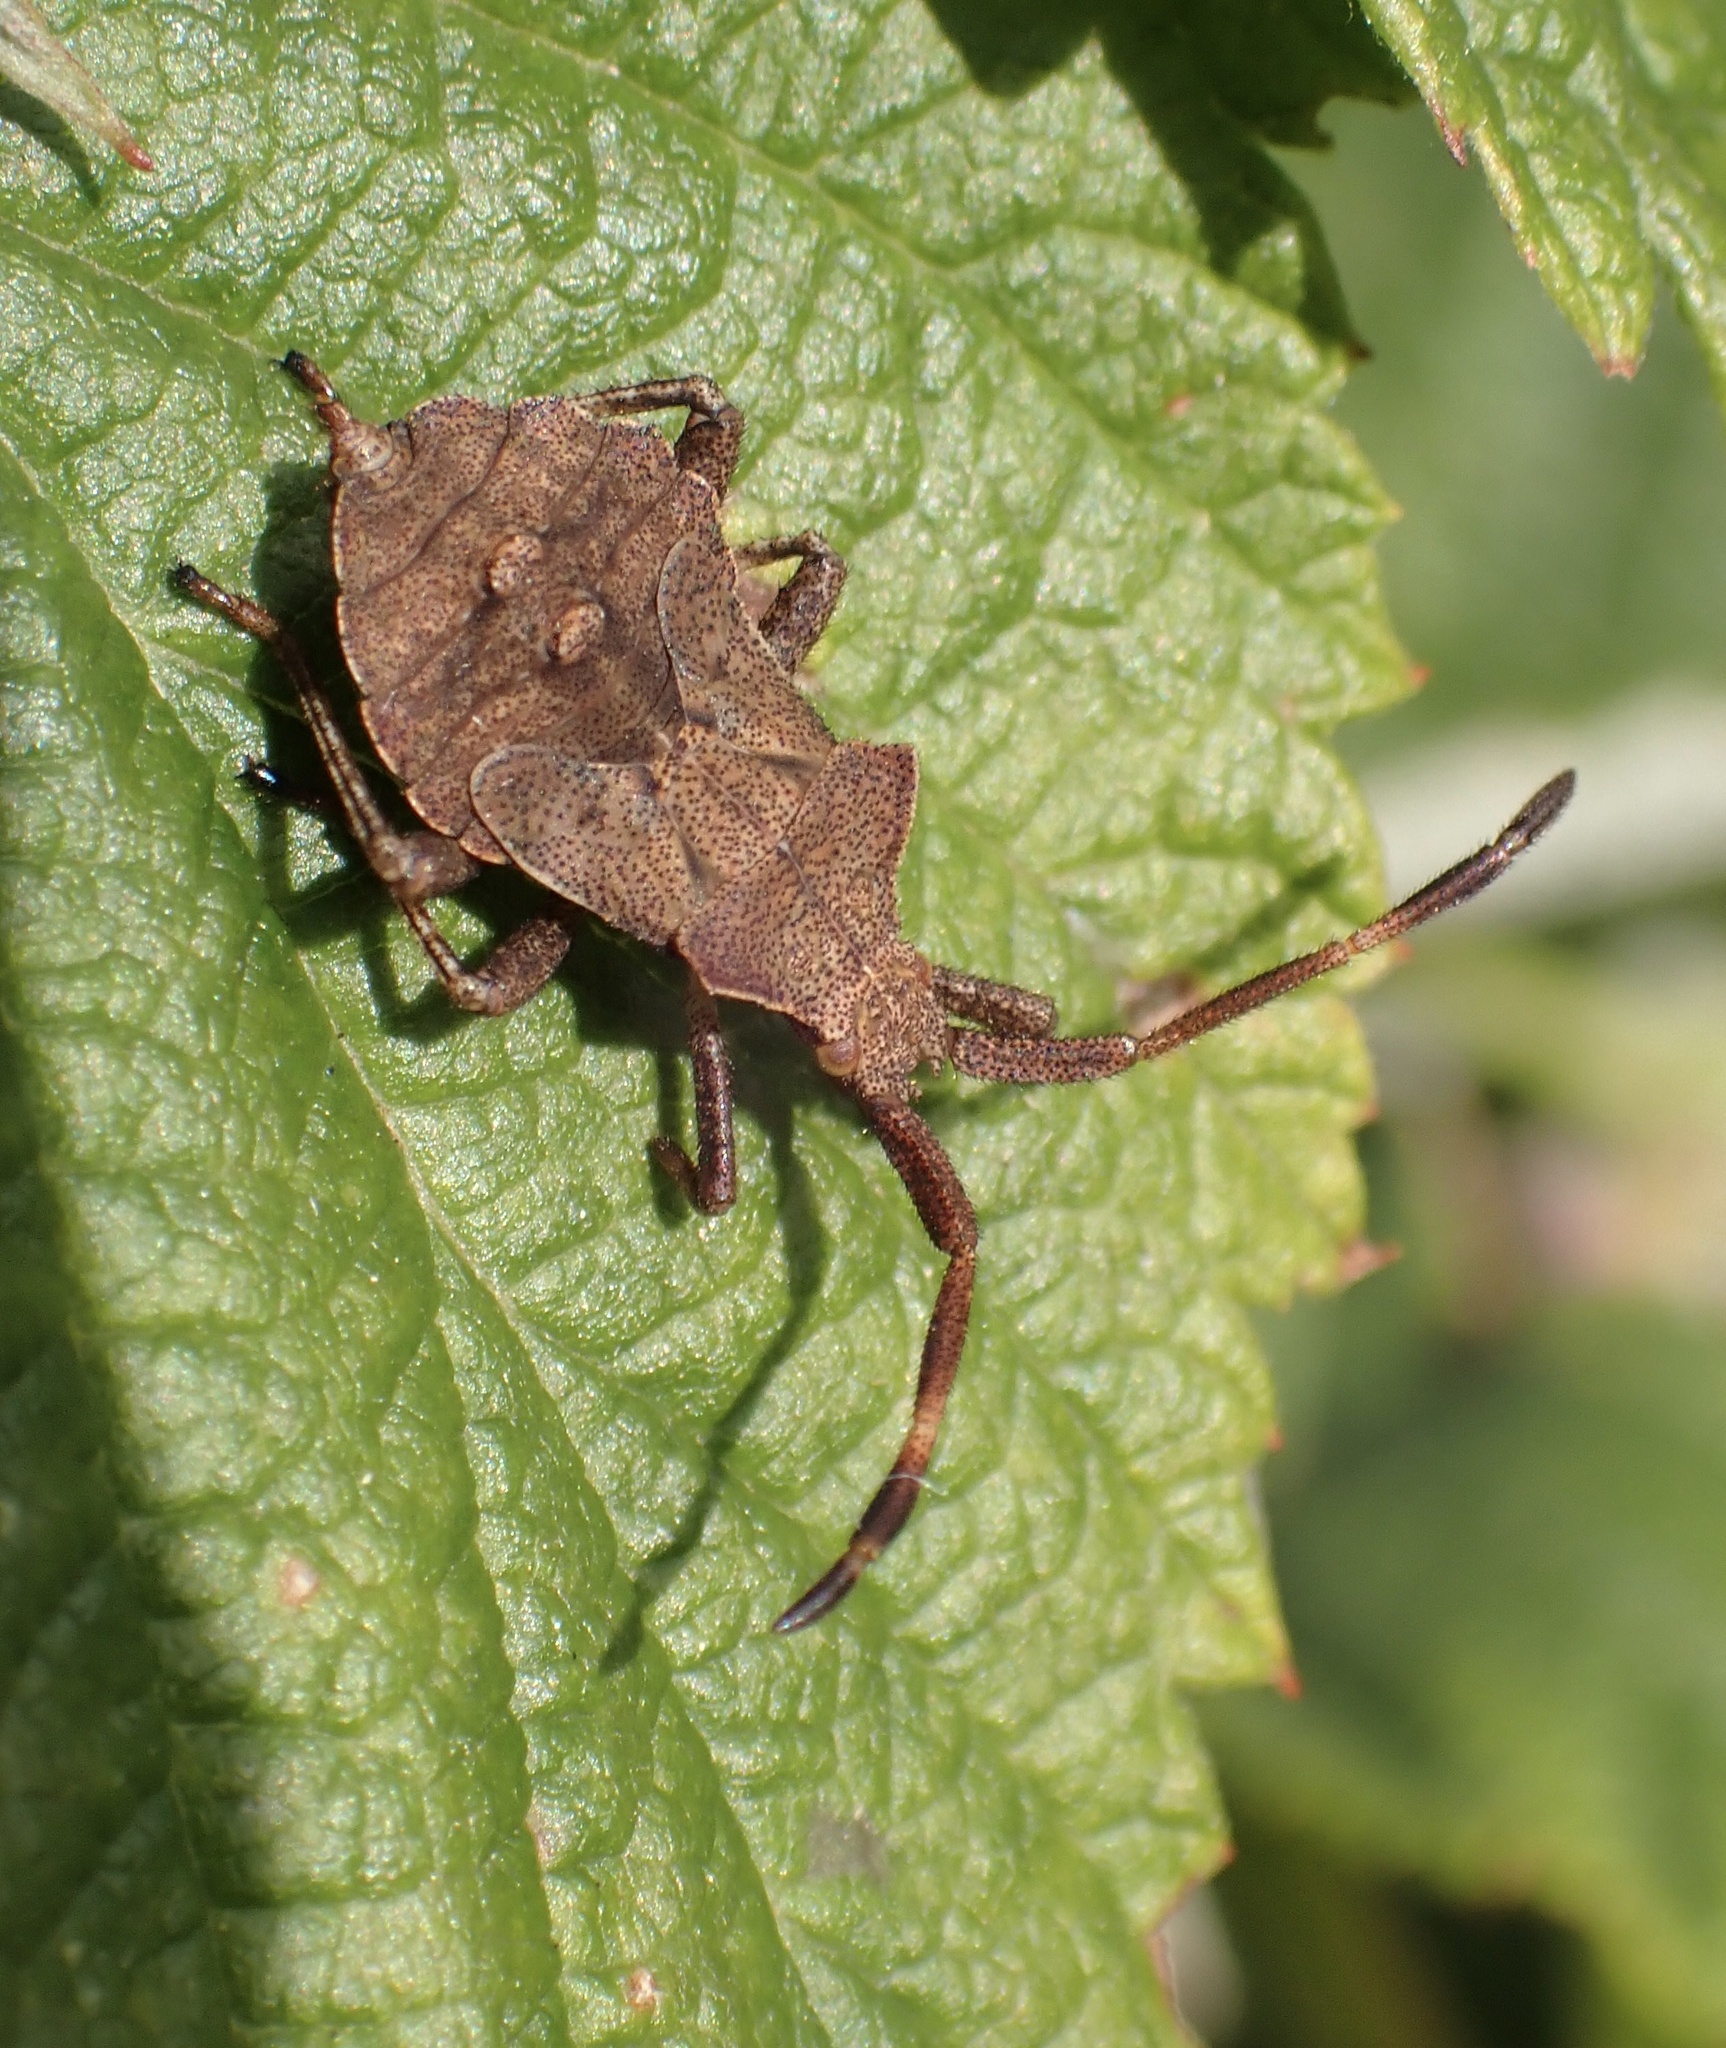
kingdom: Animalia
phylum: Arthropoda
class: Insecta
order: Hemiptera
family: Coreidae
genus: Coreus
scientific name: Coreus marginatus
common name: Dock bug
